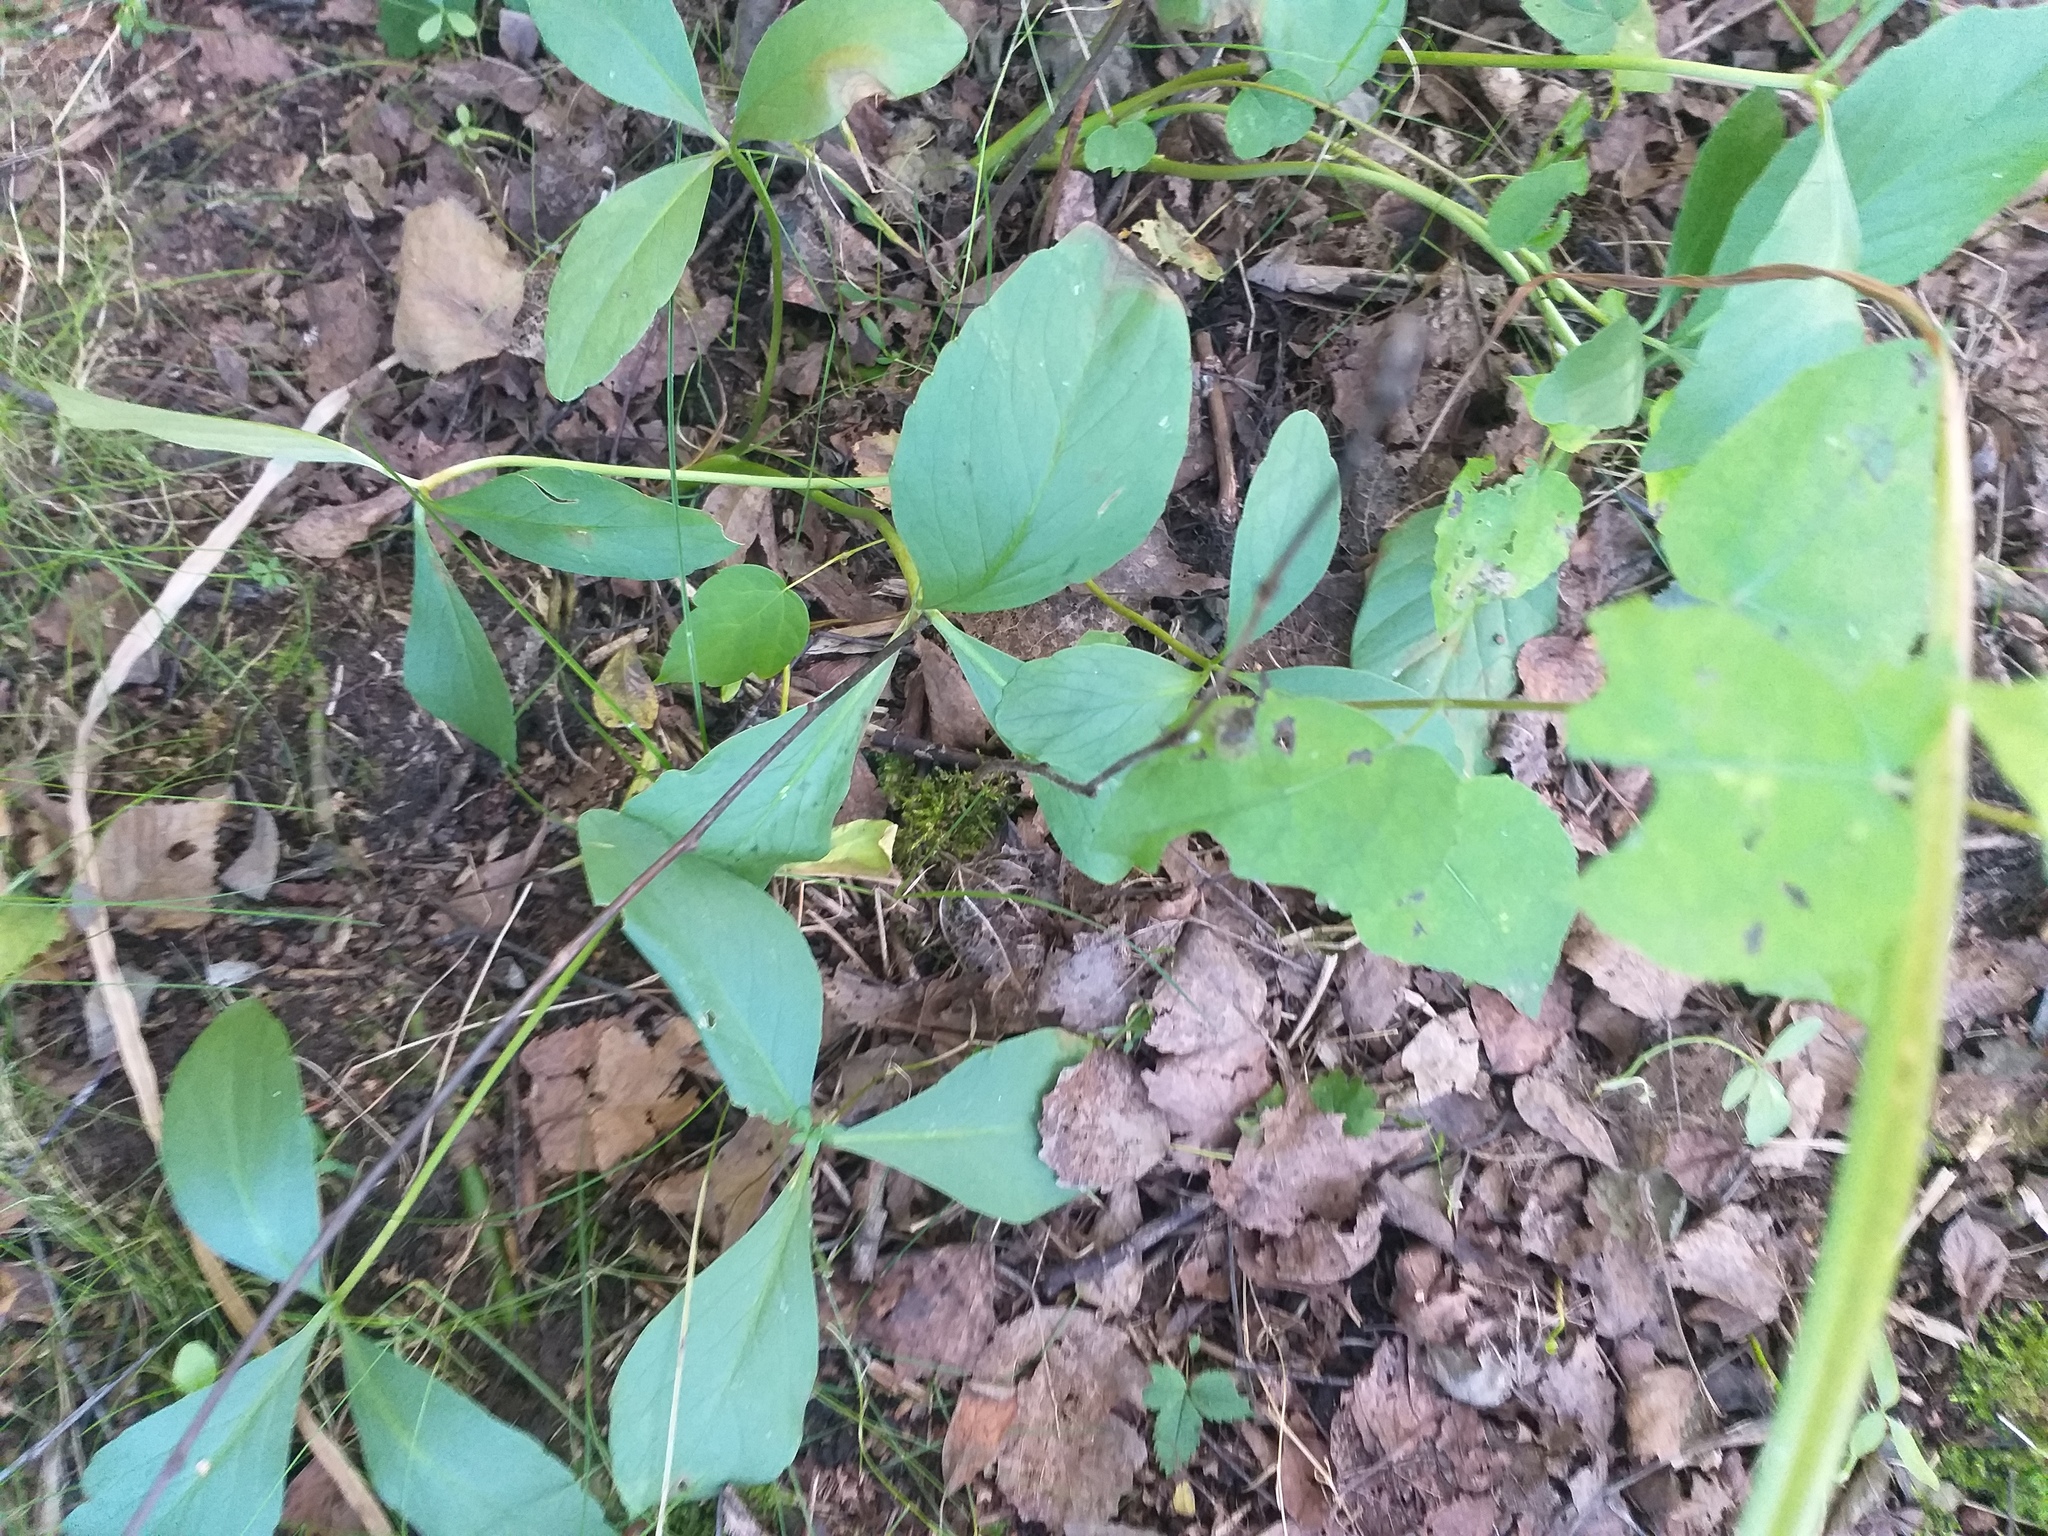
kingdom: Plantae
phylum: Tracheophyta
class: Magnoliopsida
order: Asterales
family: Menyanthaceae
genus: Menyanthes
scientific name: Menyanthes trifoliata
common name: Bogbean
